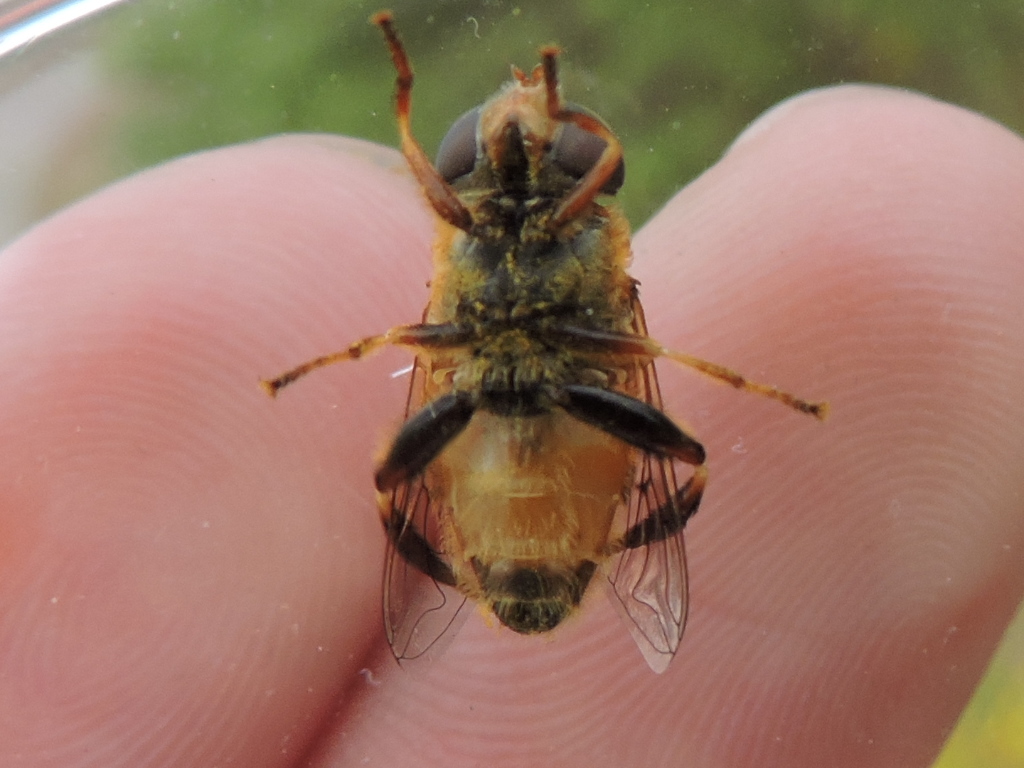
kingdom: Animalia
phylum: Arthropoda
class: Insecta
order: Diptera
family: Syrphidae
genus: Palpada
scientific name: Palpada vinetorum
